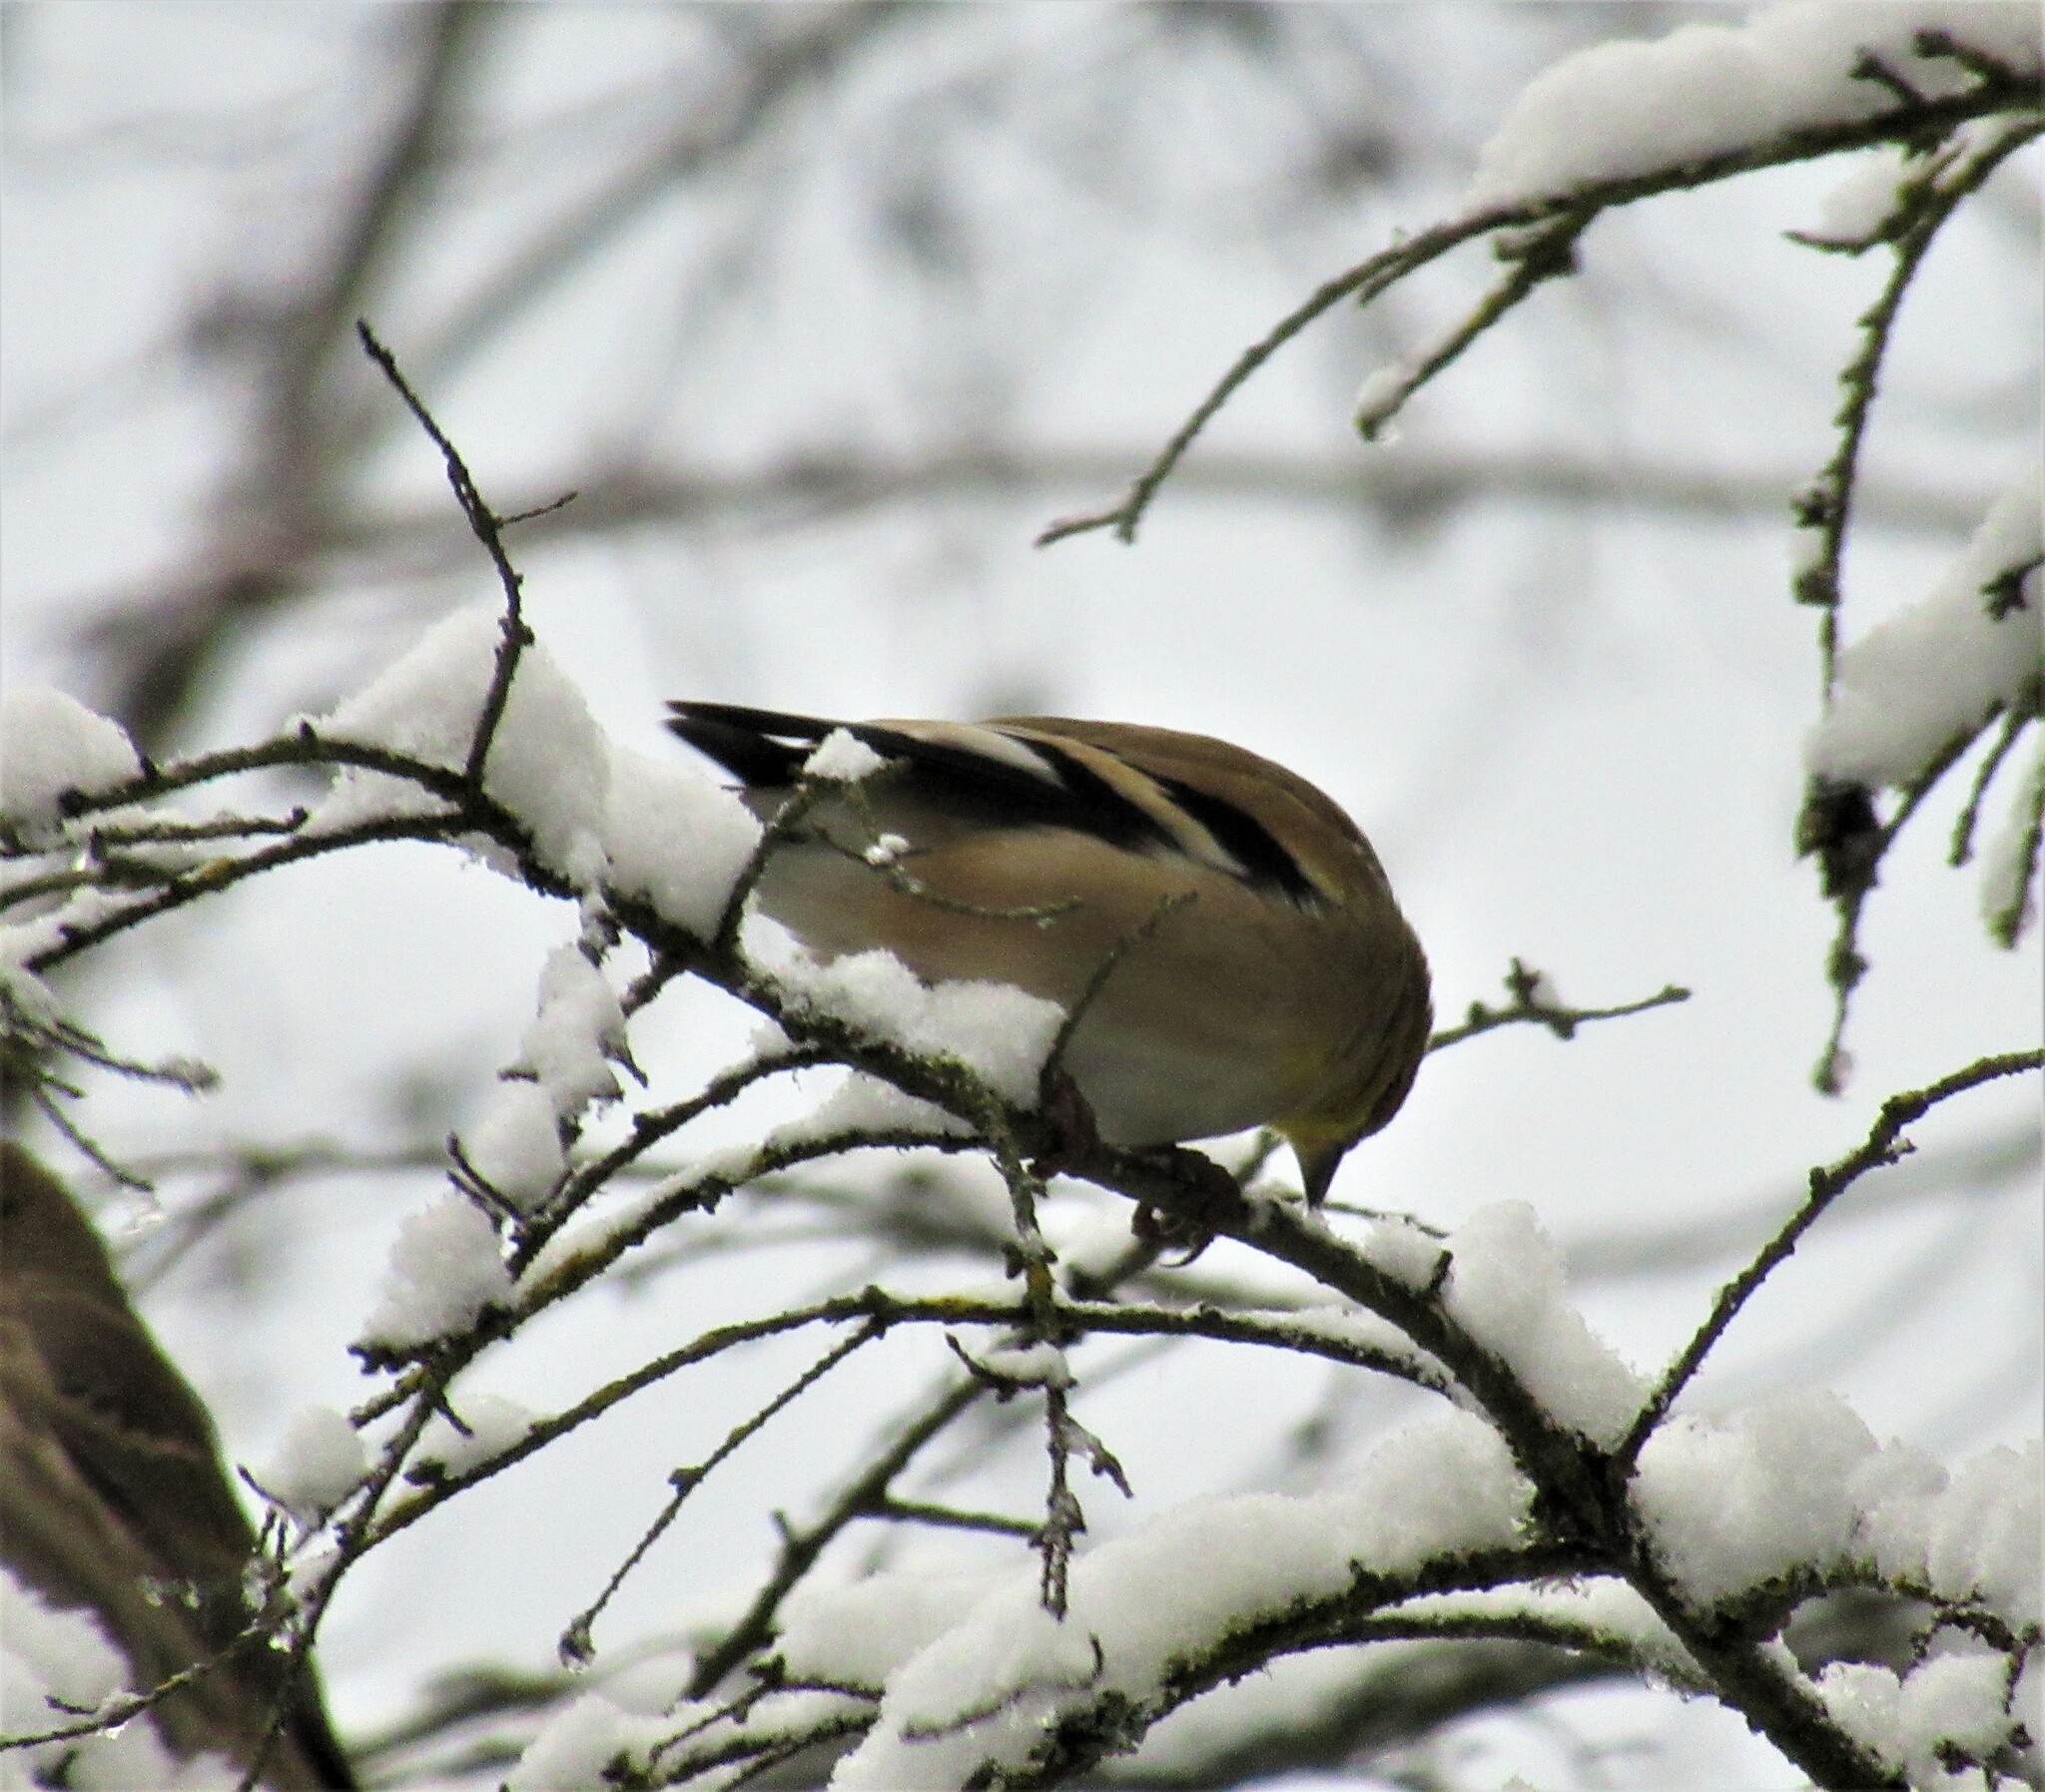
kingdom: Animalia
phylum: Chordata
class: Aves
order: Passeriformes
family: Fringillidae
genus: Spinus
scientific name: Spinus tristis
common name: American goldfinch
